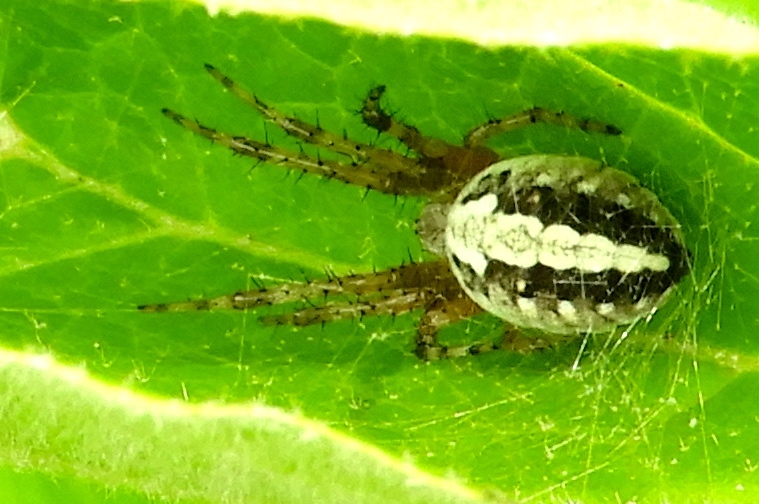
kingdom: Animalia
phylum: Arthropoda
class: Arachnida
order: Araneae
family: Araneidae
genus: Neoscona
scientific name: Neoscona
